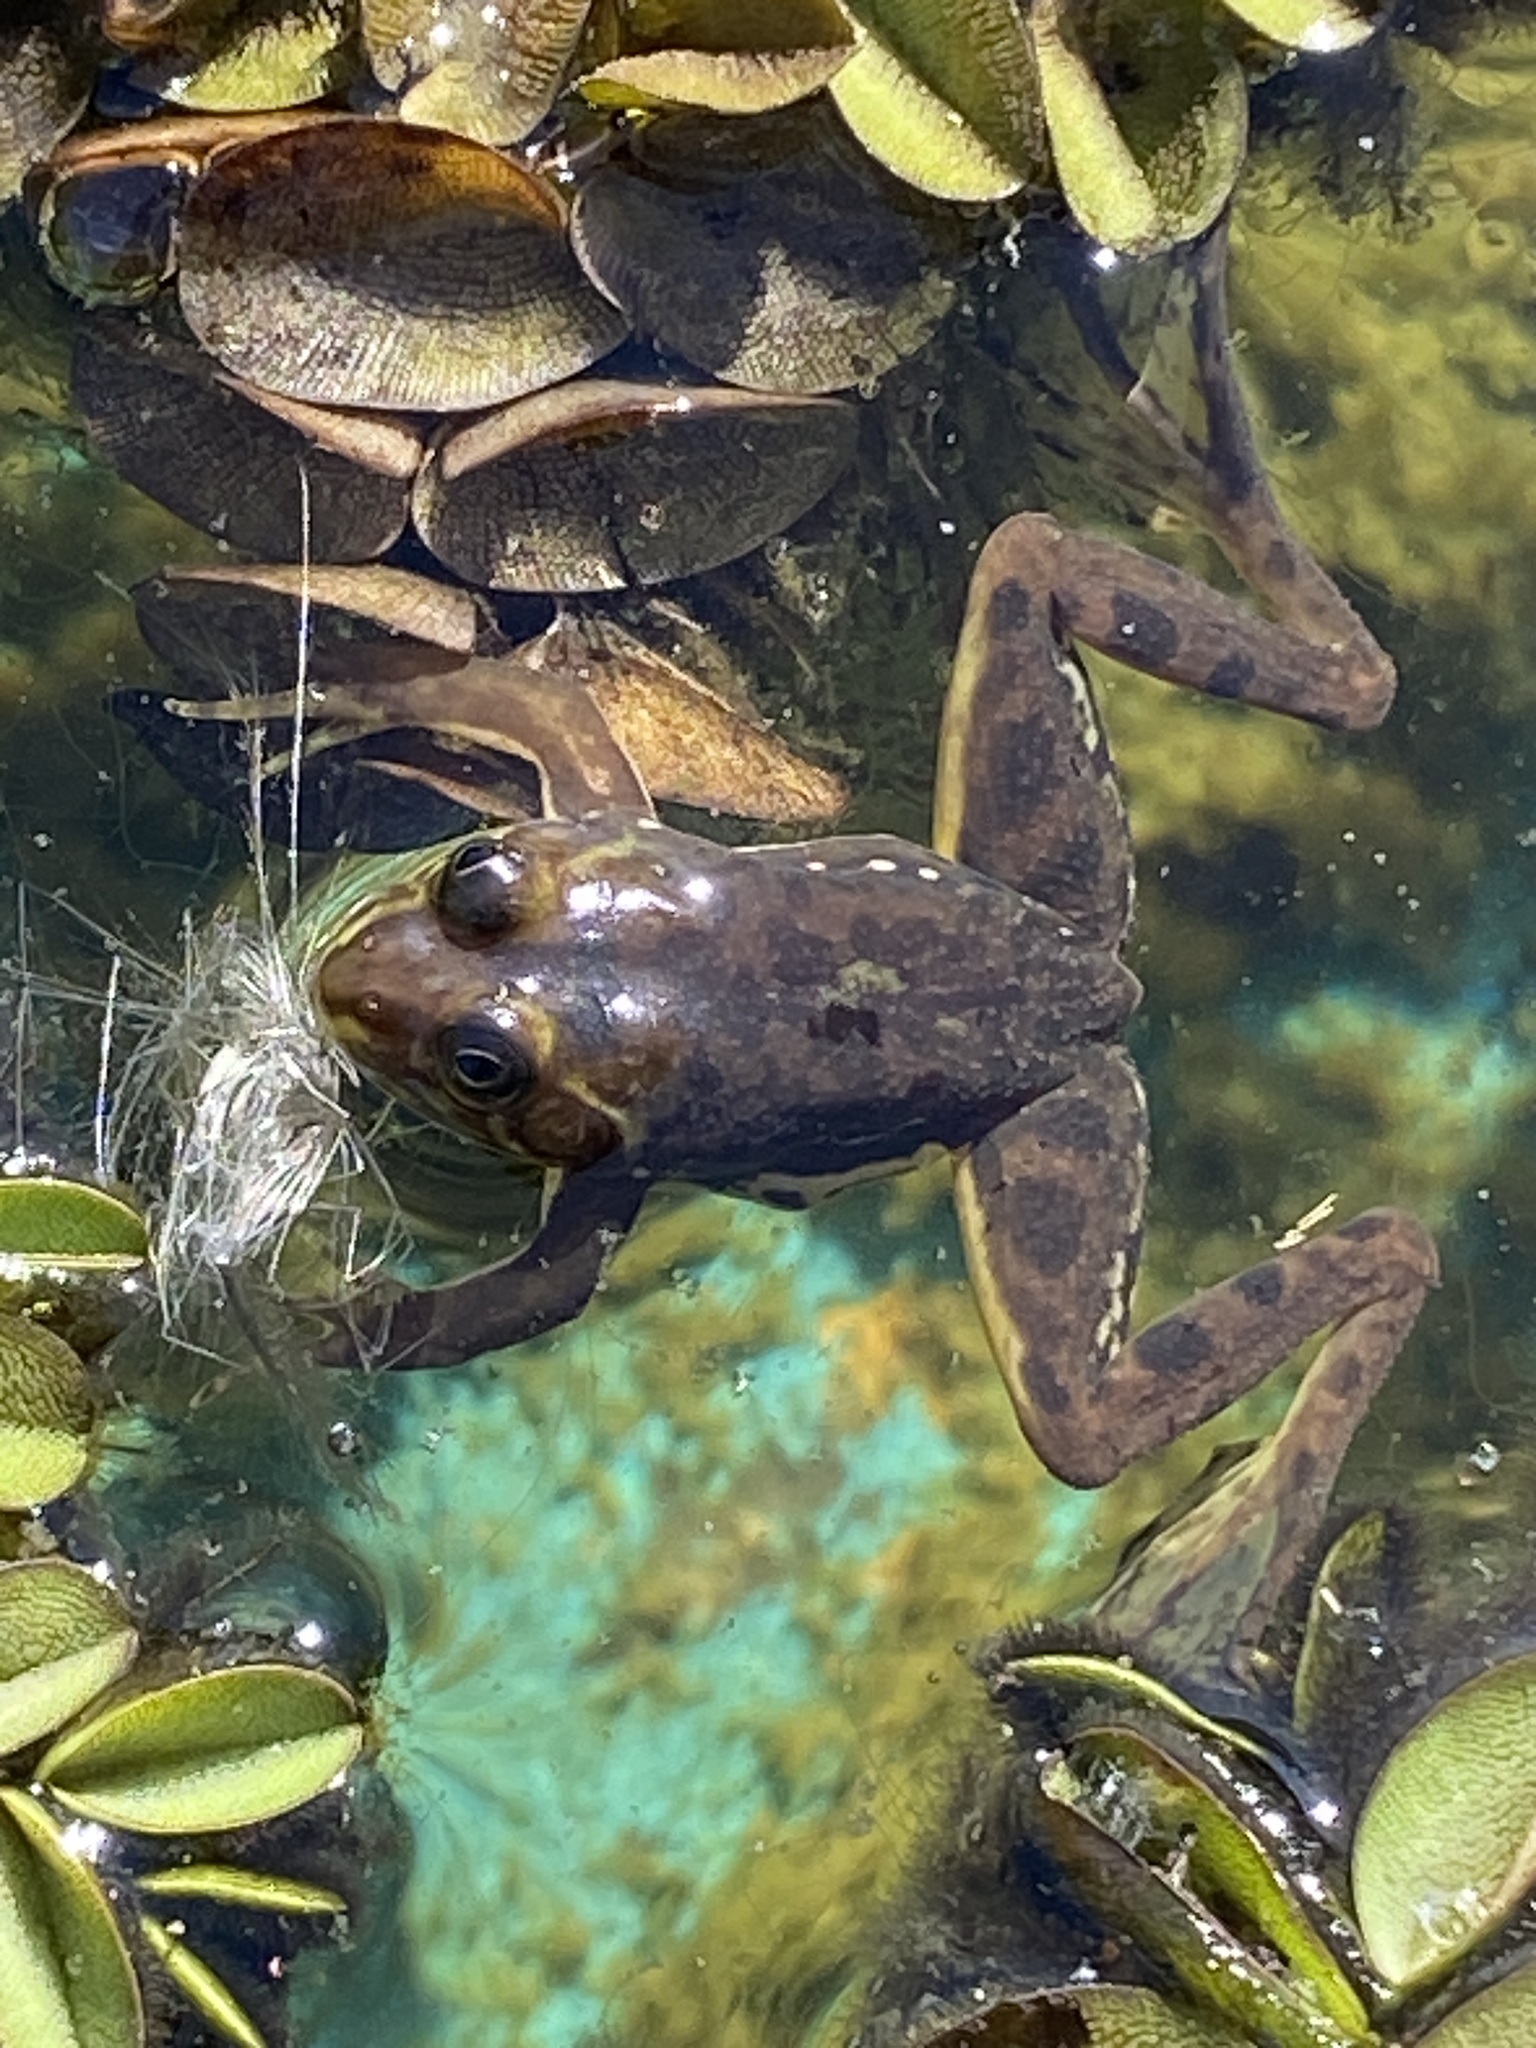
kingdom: Animalia
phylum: Chordata
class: Amphibia
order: Anura
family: Hylidae
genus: Pseudis
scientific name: Pseudis minuta
